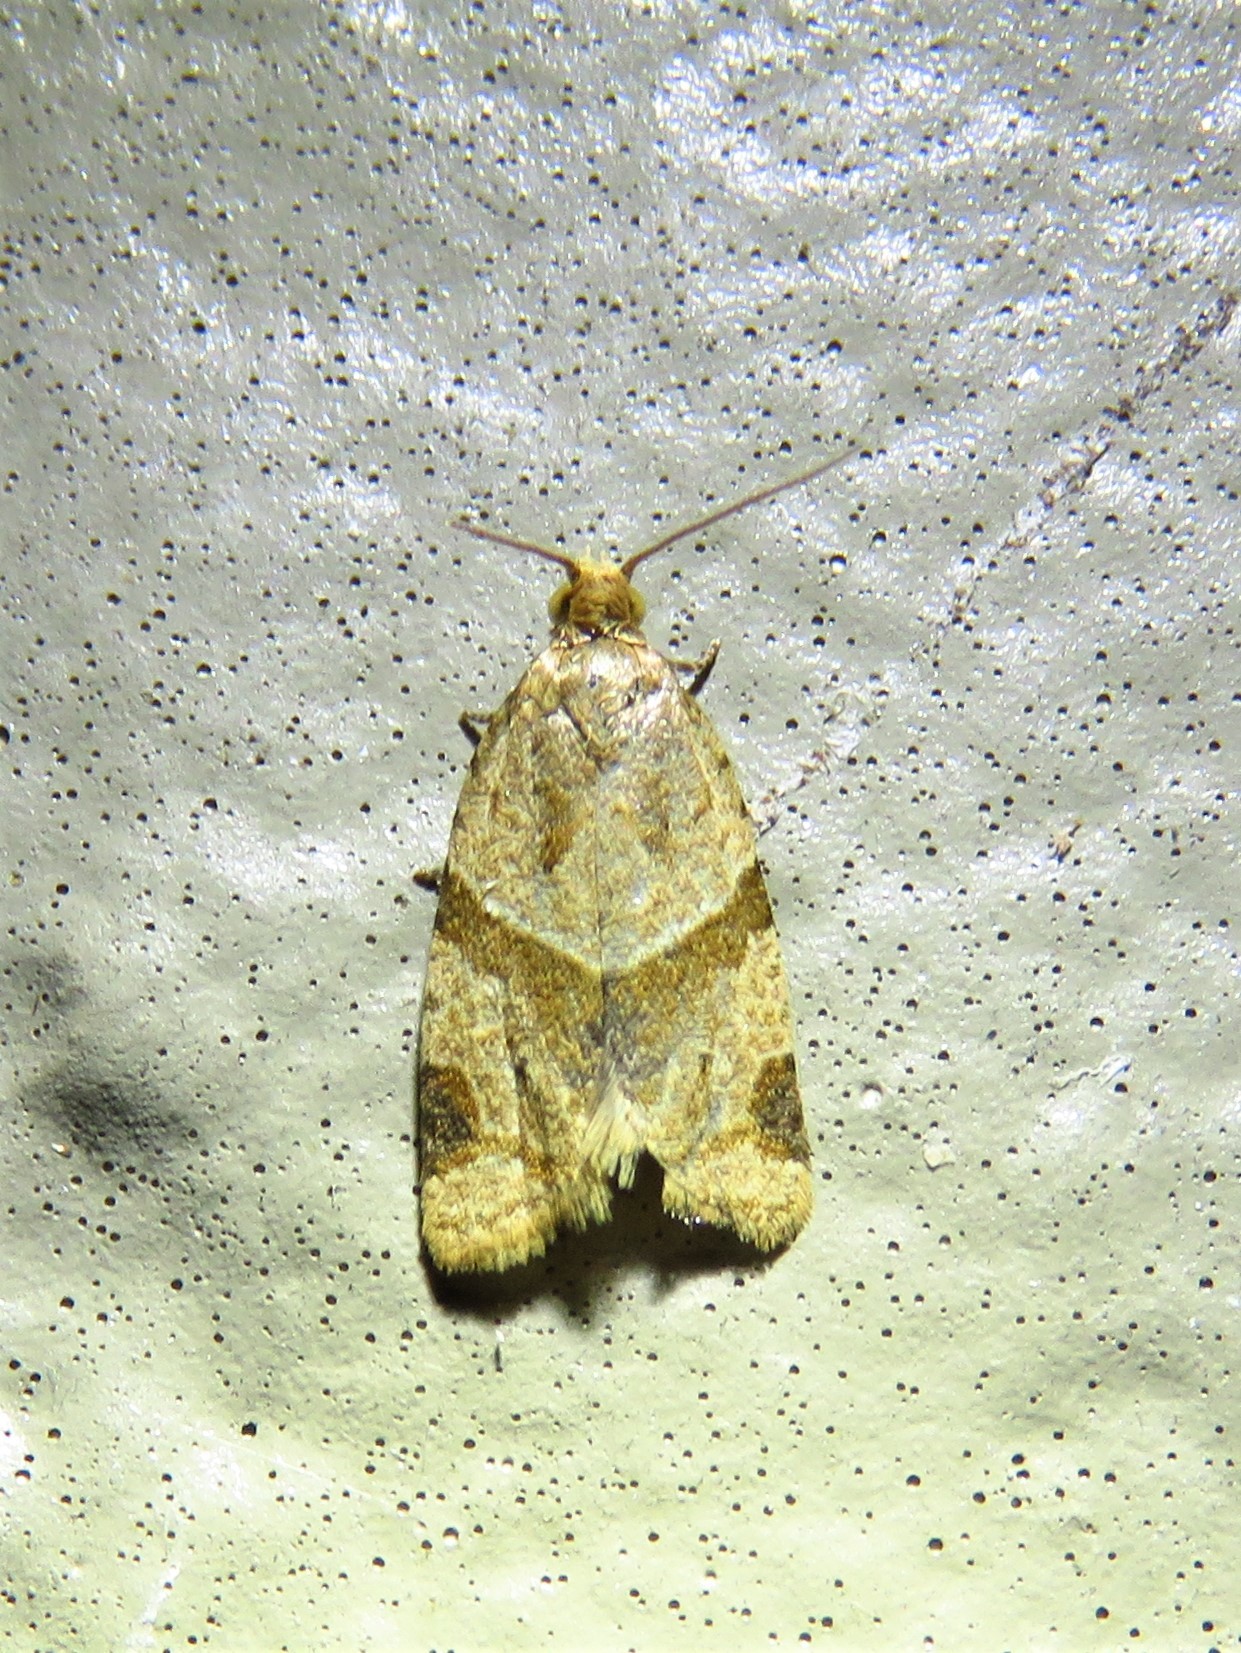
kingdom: Animalia
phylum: Arthropoda
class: Insecta
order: Lepidoptera
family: Tortricidae
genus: Clepsis
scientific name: Clepsis peritana
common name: Garden tortrix
